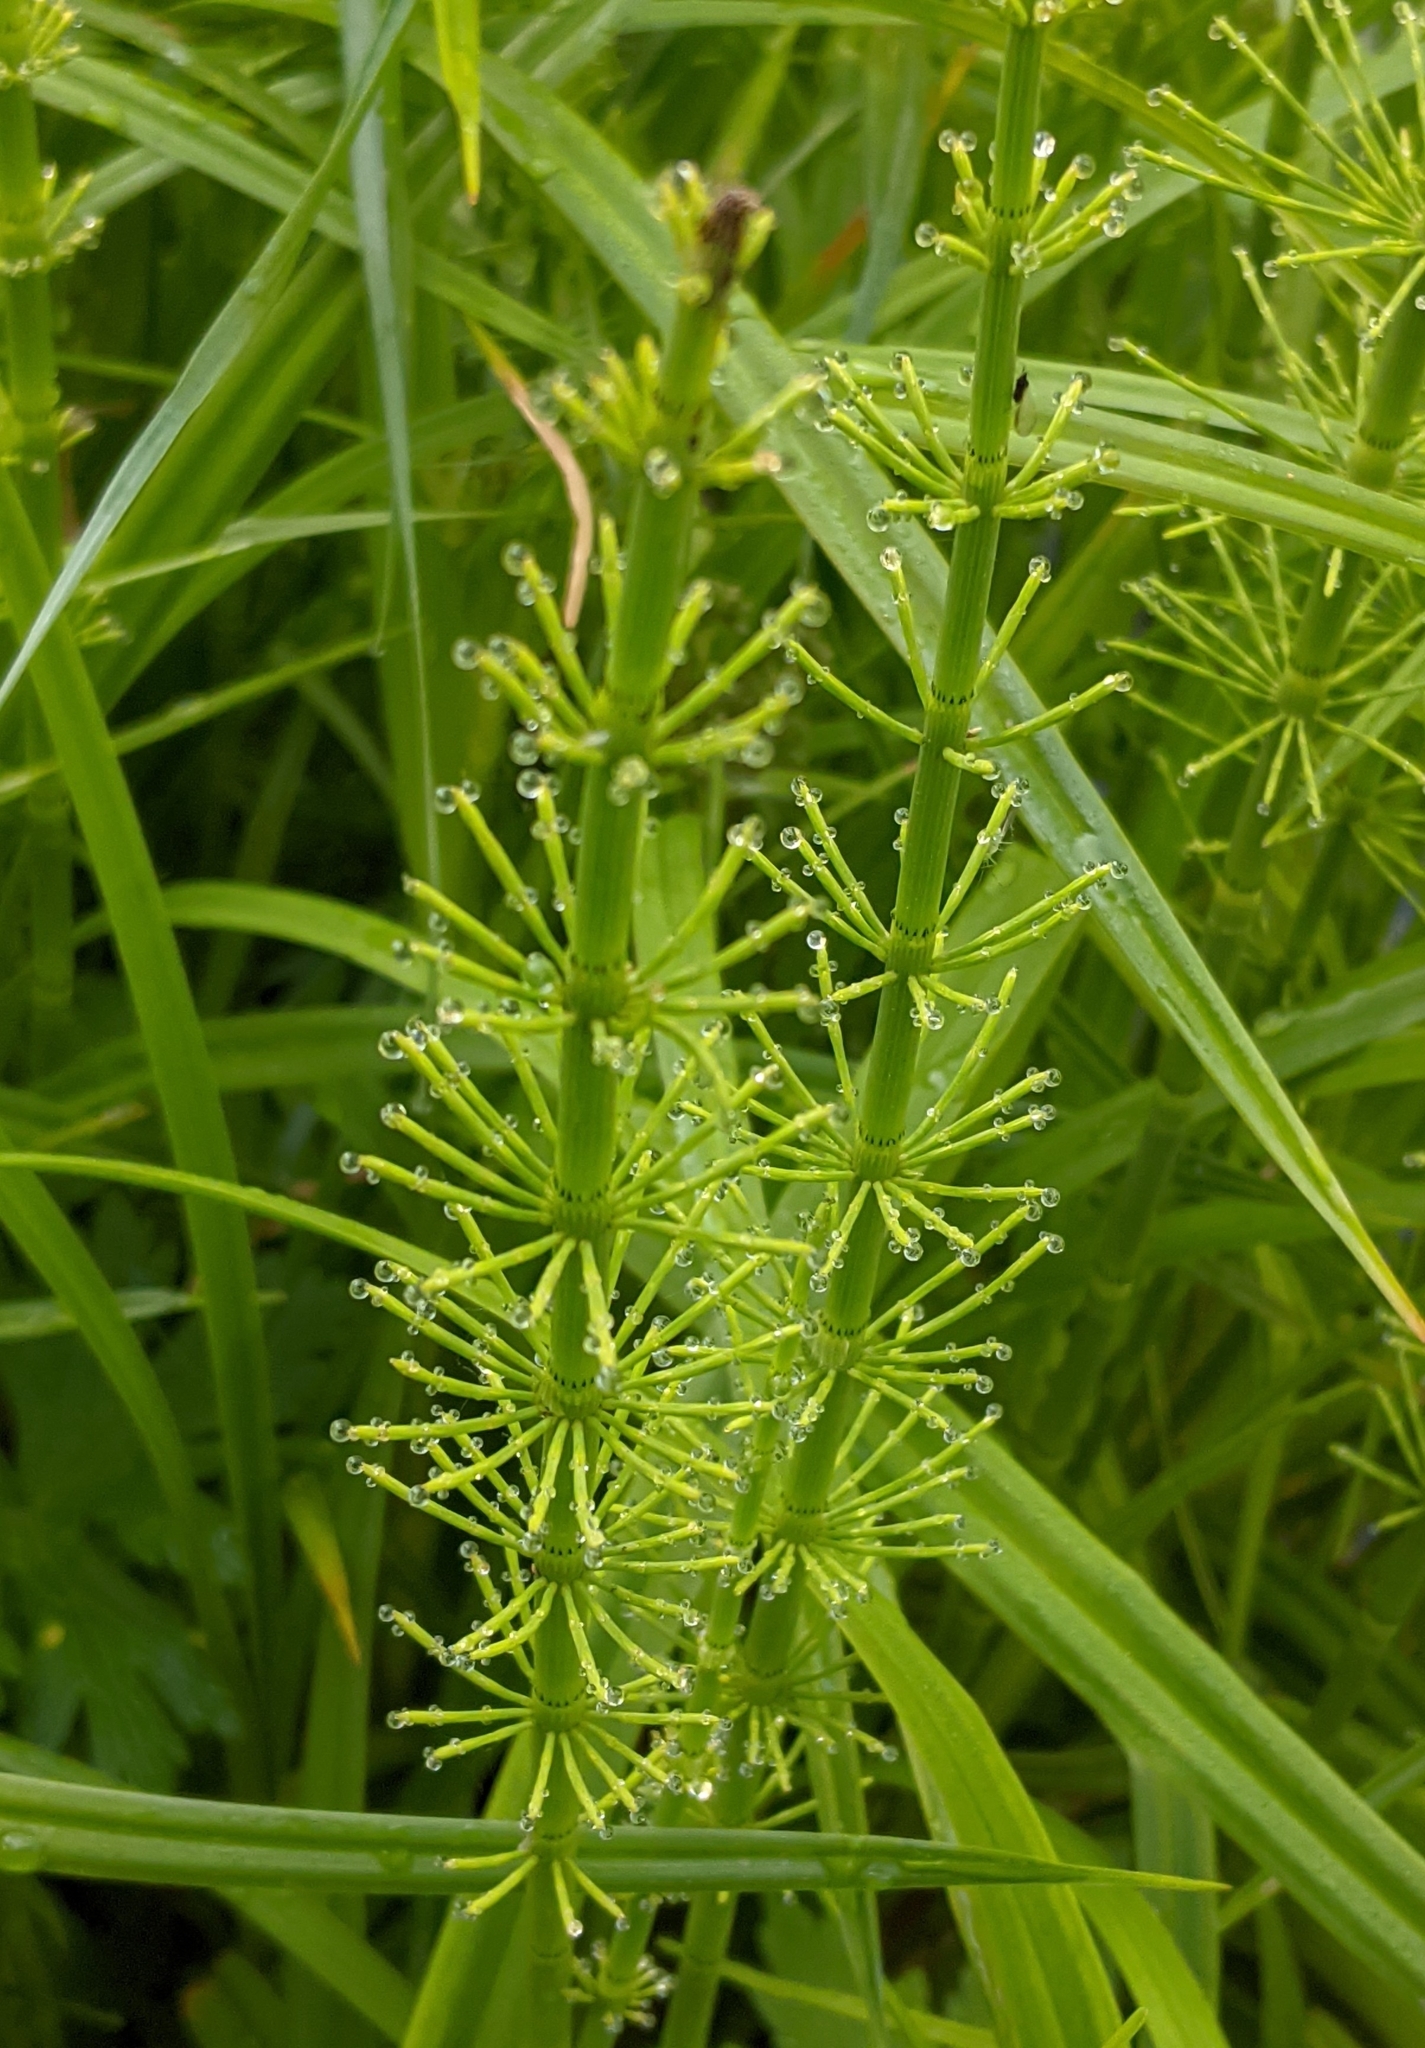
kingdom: Plantae
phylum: Tracheophyta
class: Polypodiopsida
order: Equisetales
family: Equisetaceae
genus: Equisetum
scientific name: Equisetum fluviatile
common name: Water horsetail
